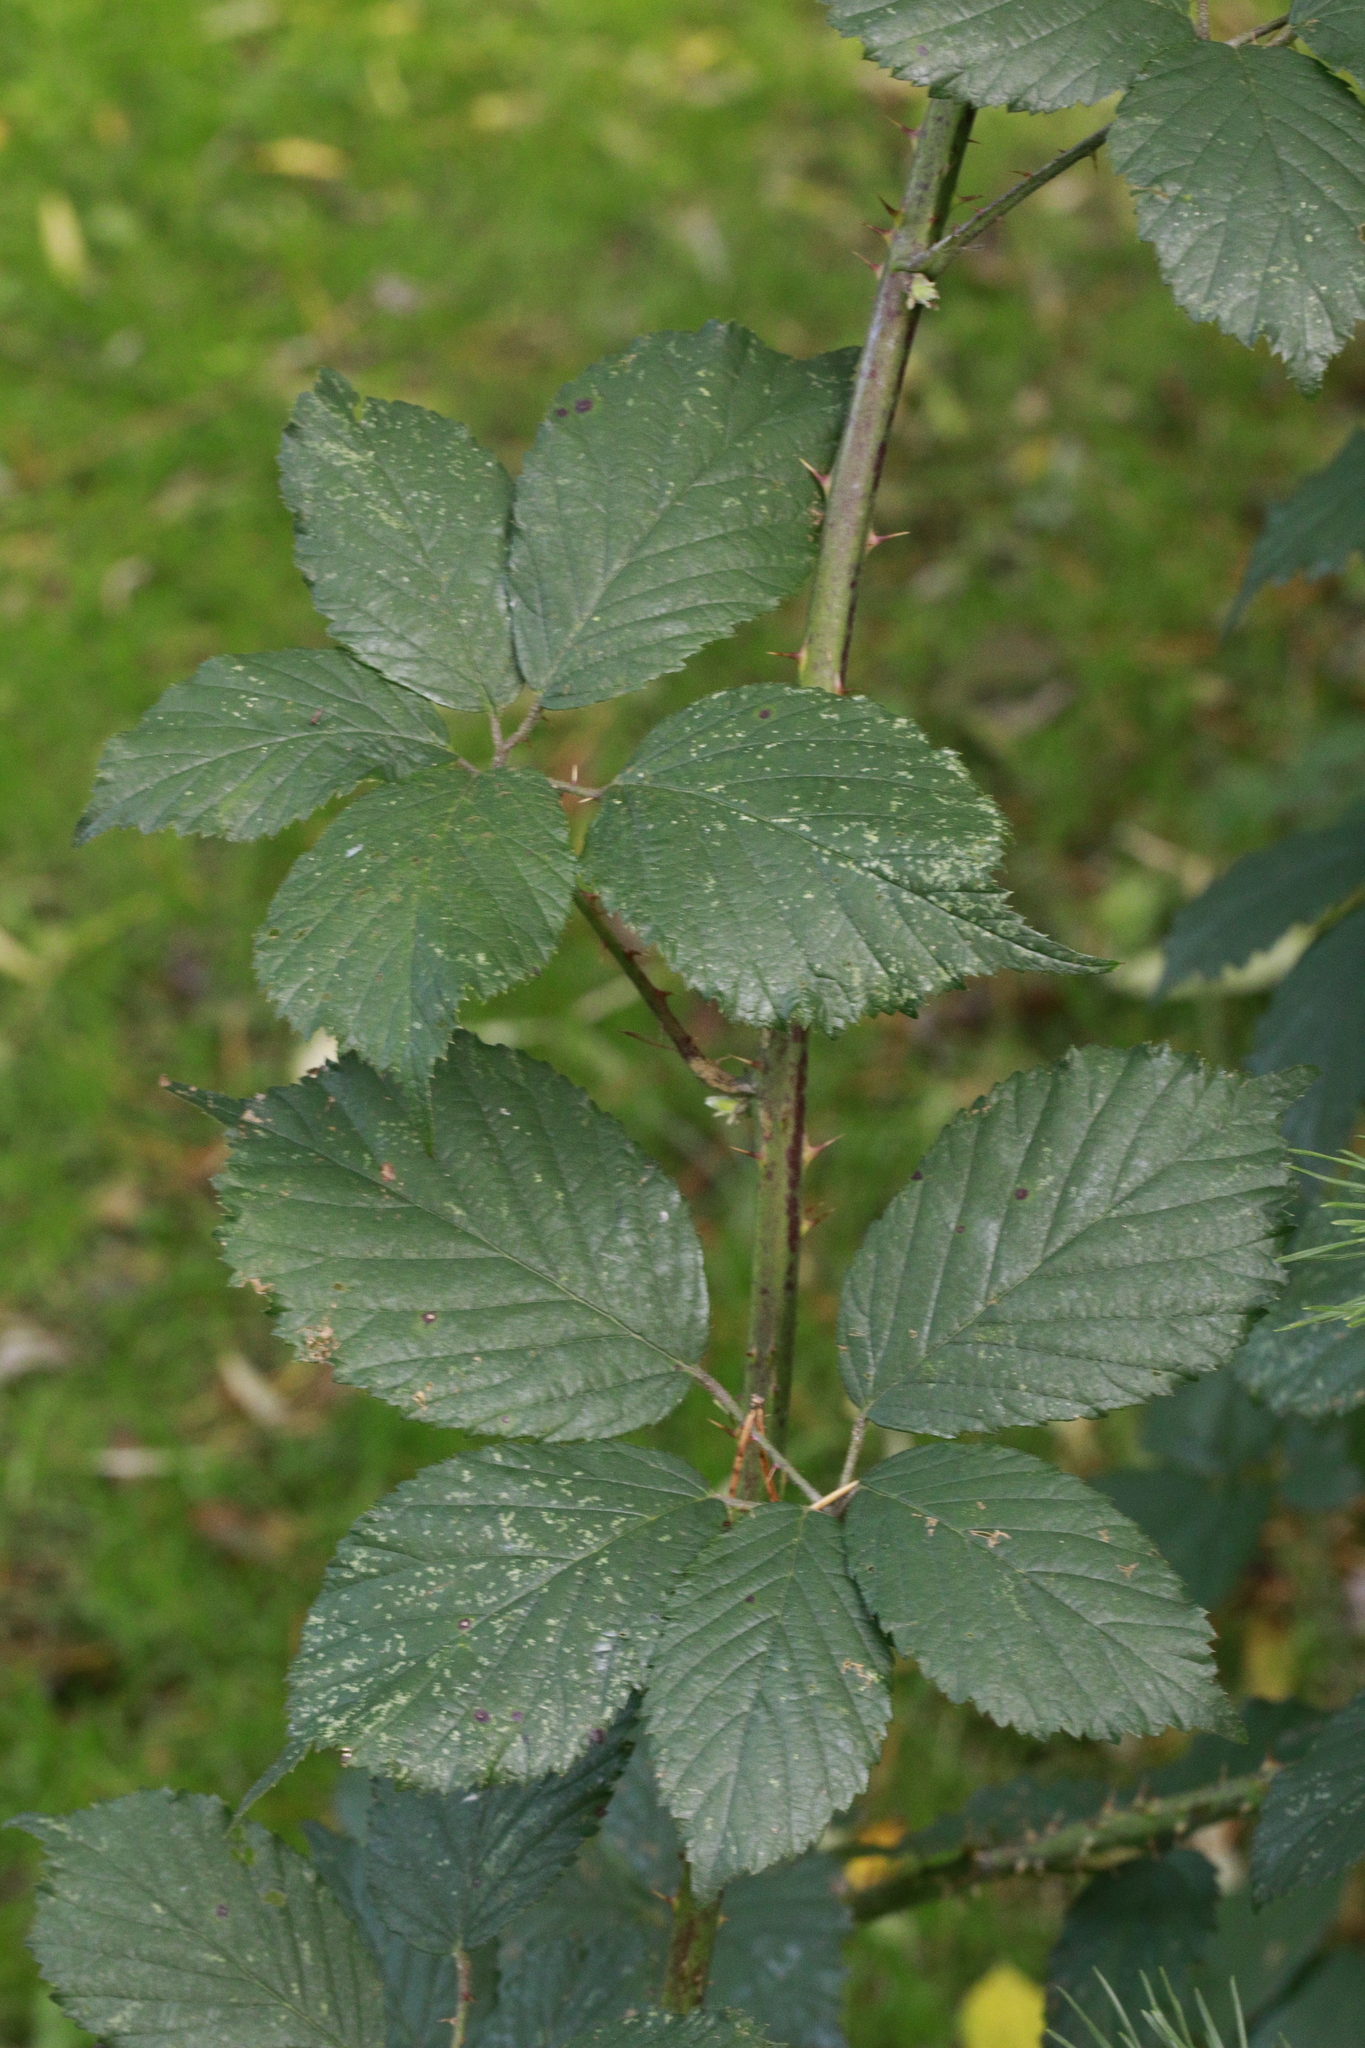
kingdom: Plantae
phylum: Tracheophyta
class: Magnoliopsida
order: Rosales
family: Rosaceae
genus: Rubus
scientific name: Rubus cissburiensis
